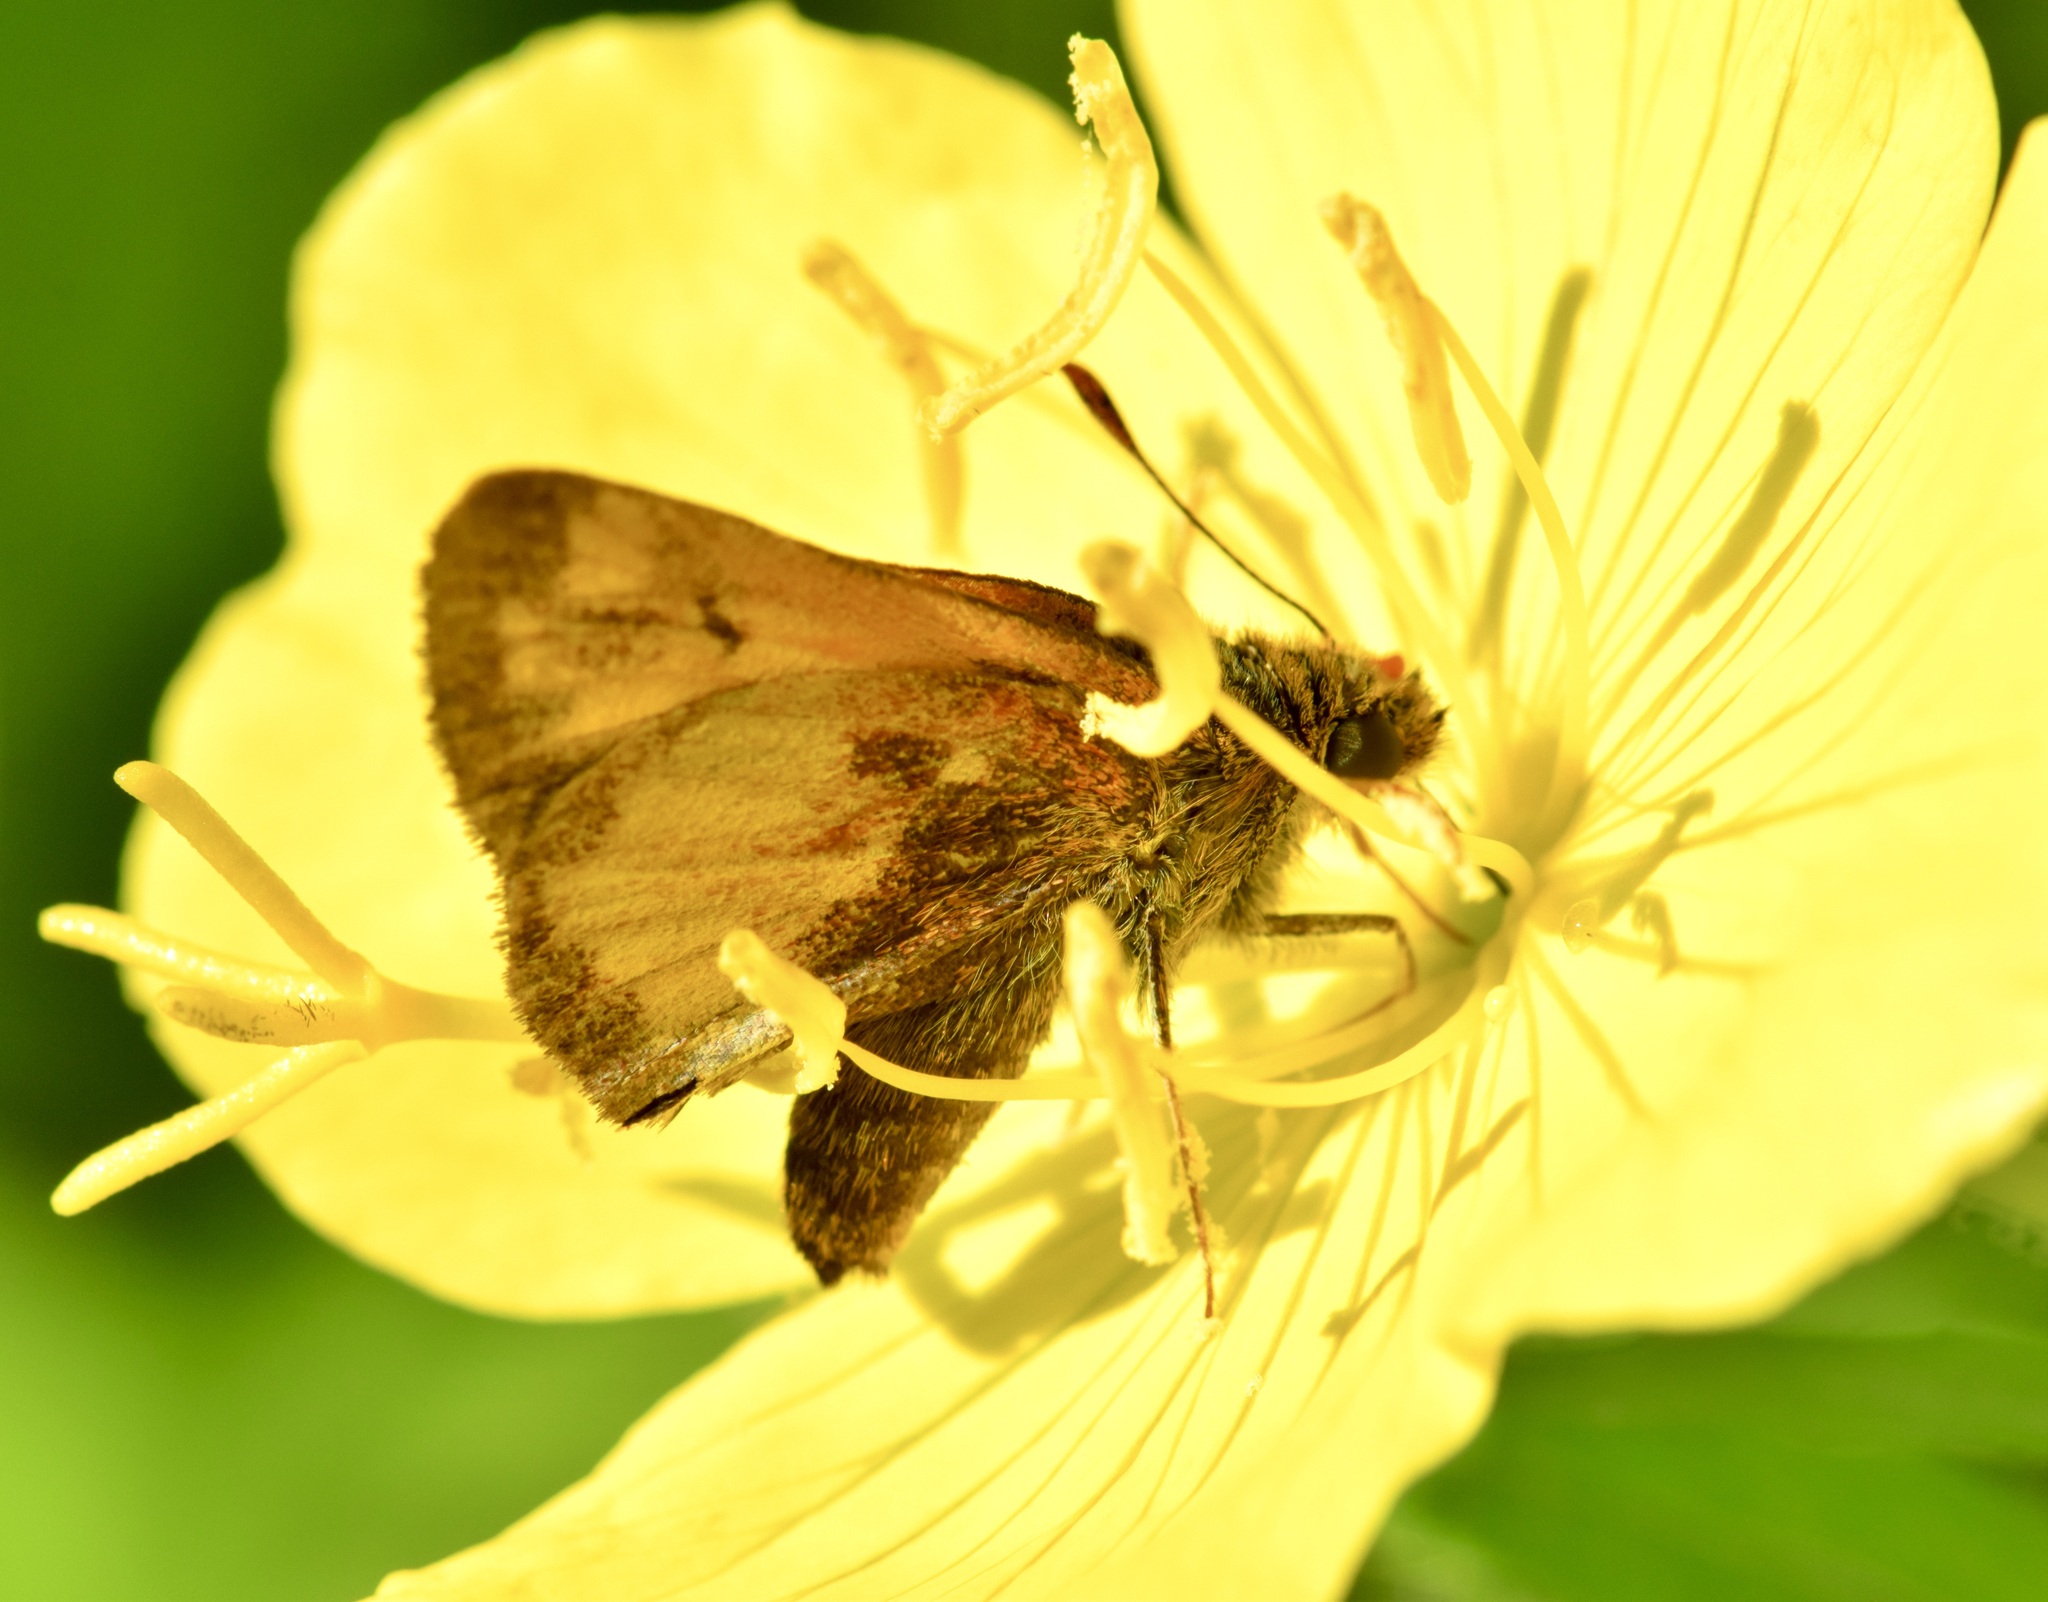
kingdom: Animalia
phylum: Arthropoda
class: Insecta
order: Lepidoptera
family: Hesperiidae
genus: Lon
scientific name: Lon hobomok
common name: Hobomok skipper
